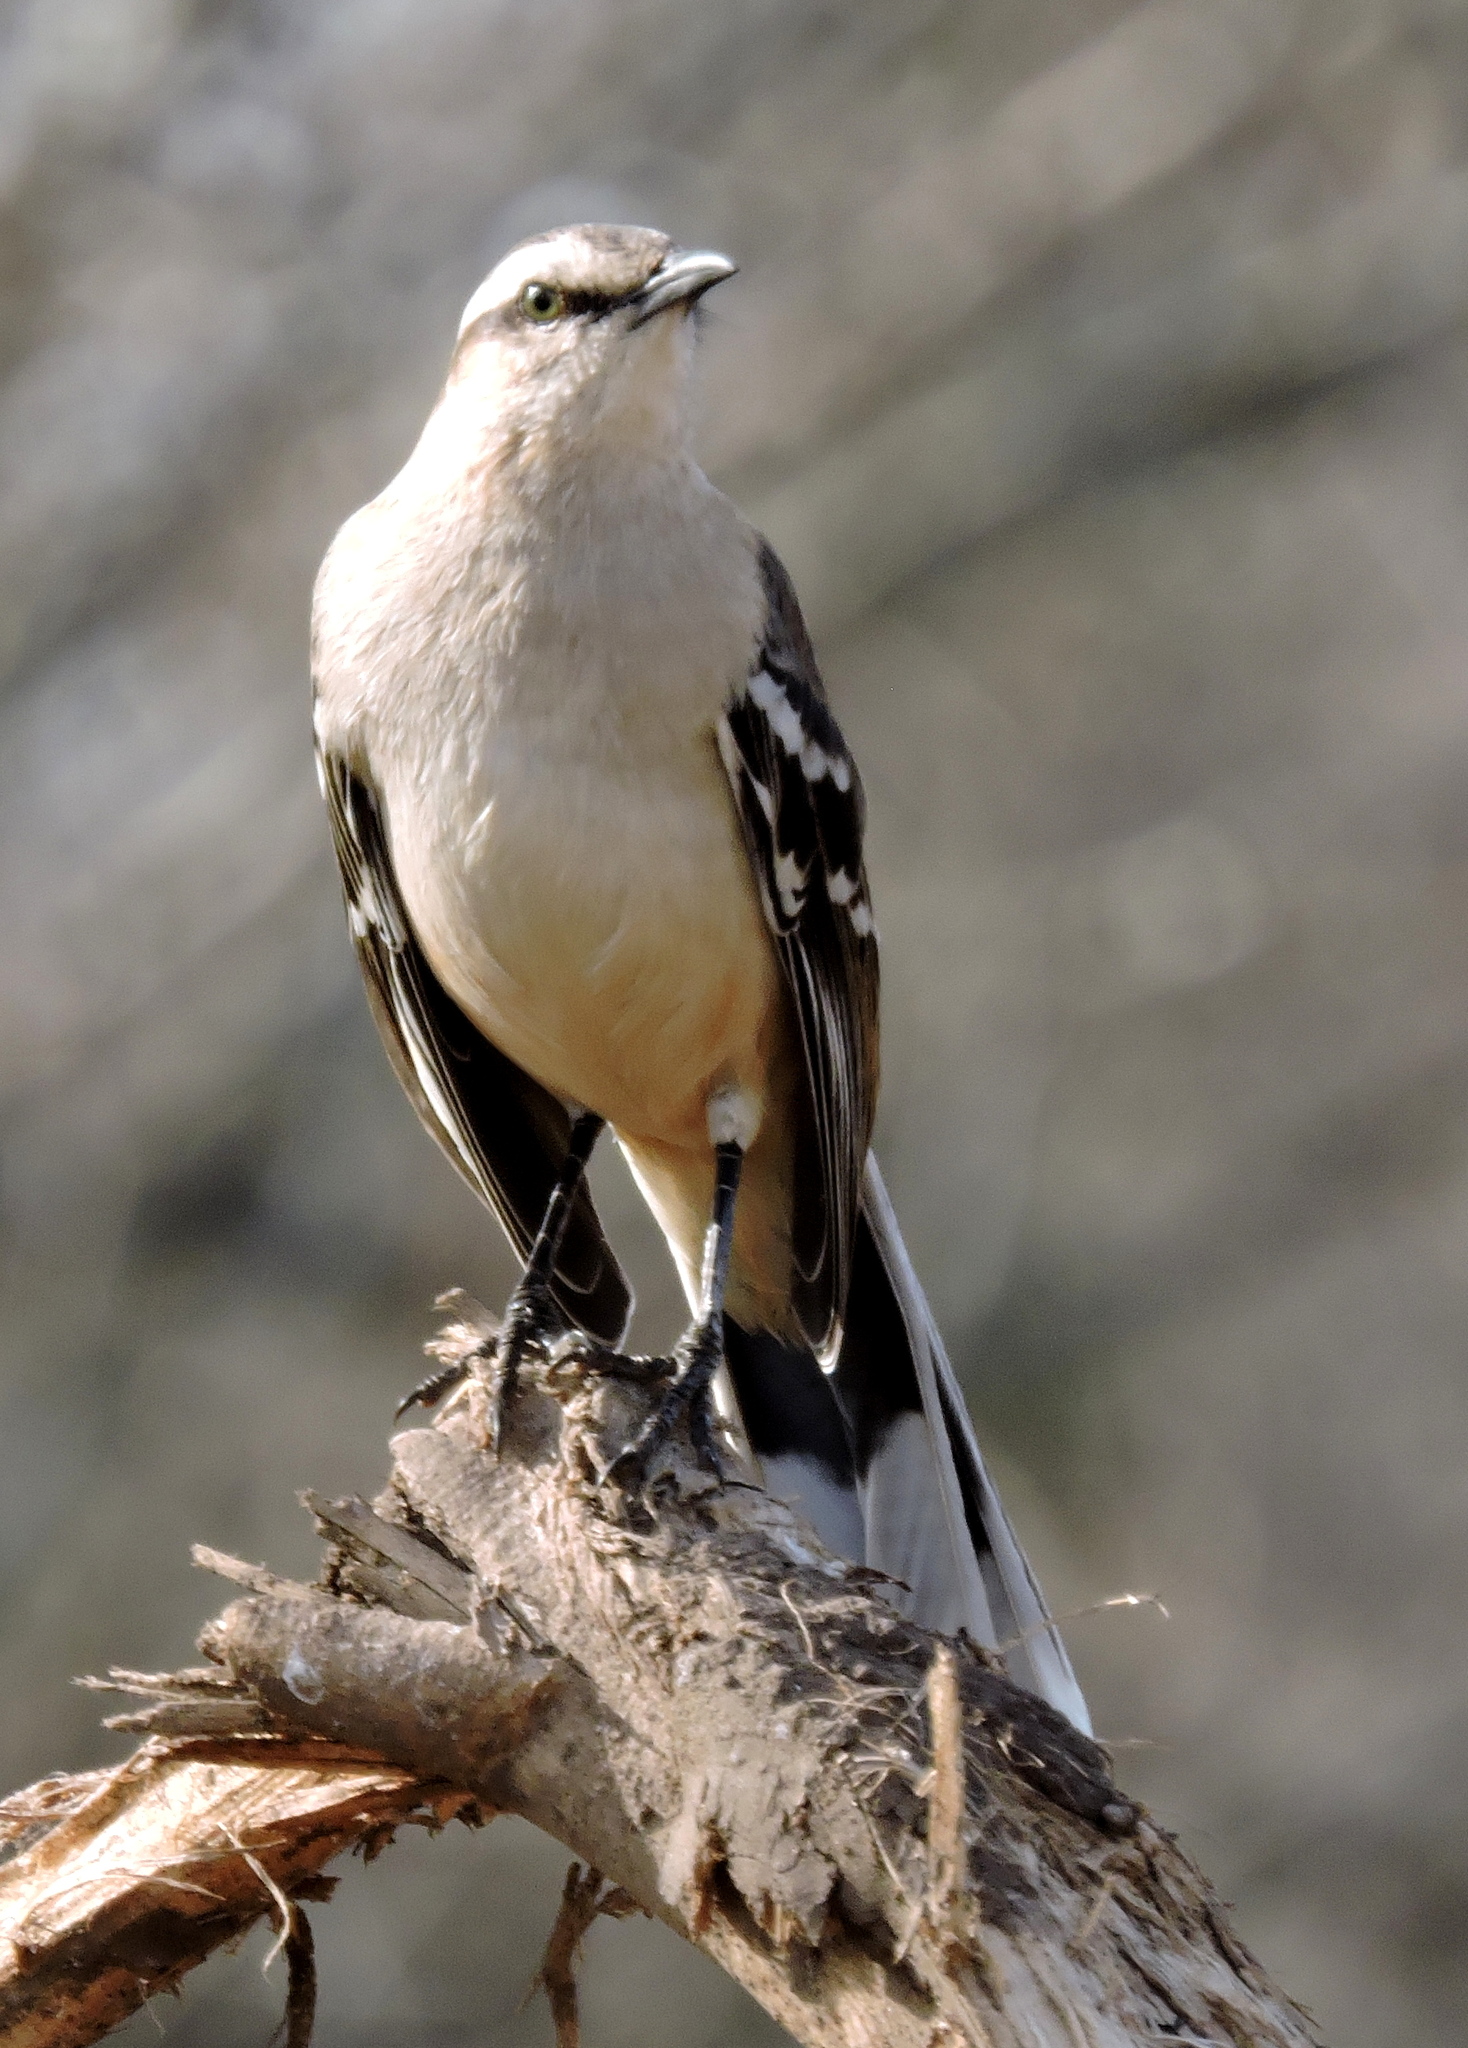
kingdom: Animalia
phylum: Chordata
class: Aves
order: Passeriformes
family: Mimidae
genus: Mimus
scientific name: Mimus saturninus
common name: Chalk-browed mockingbird
